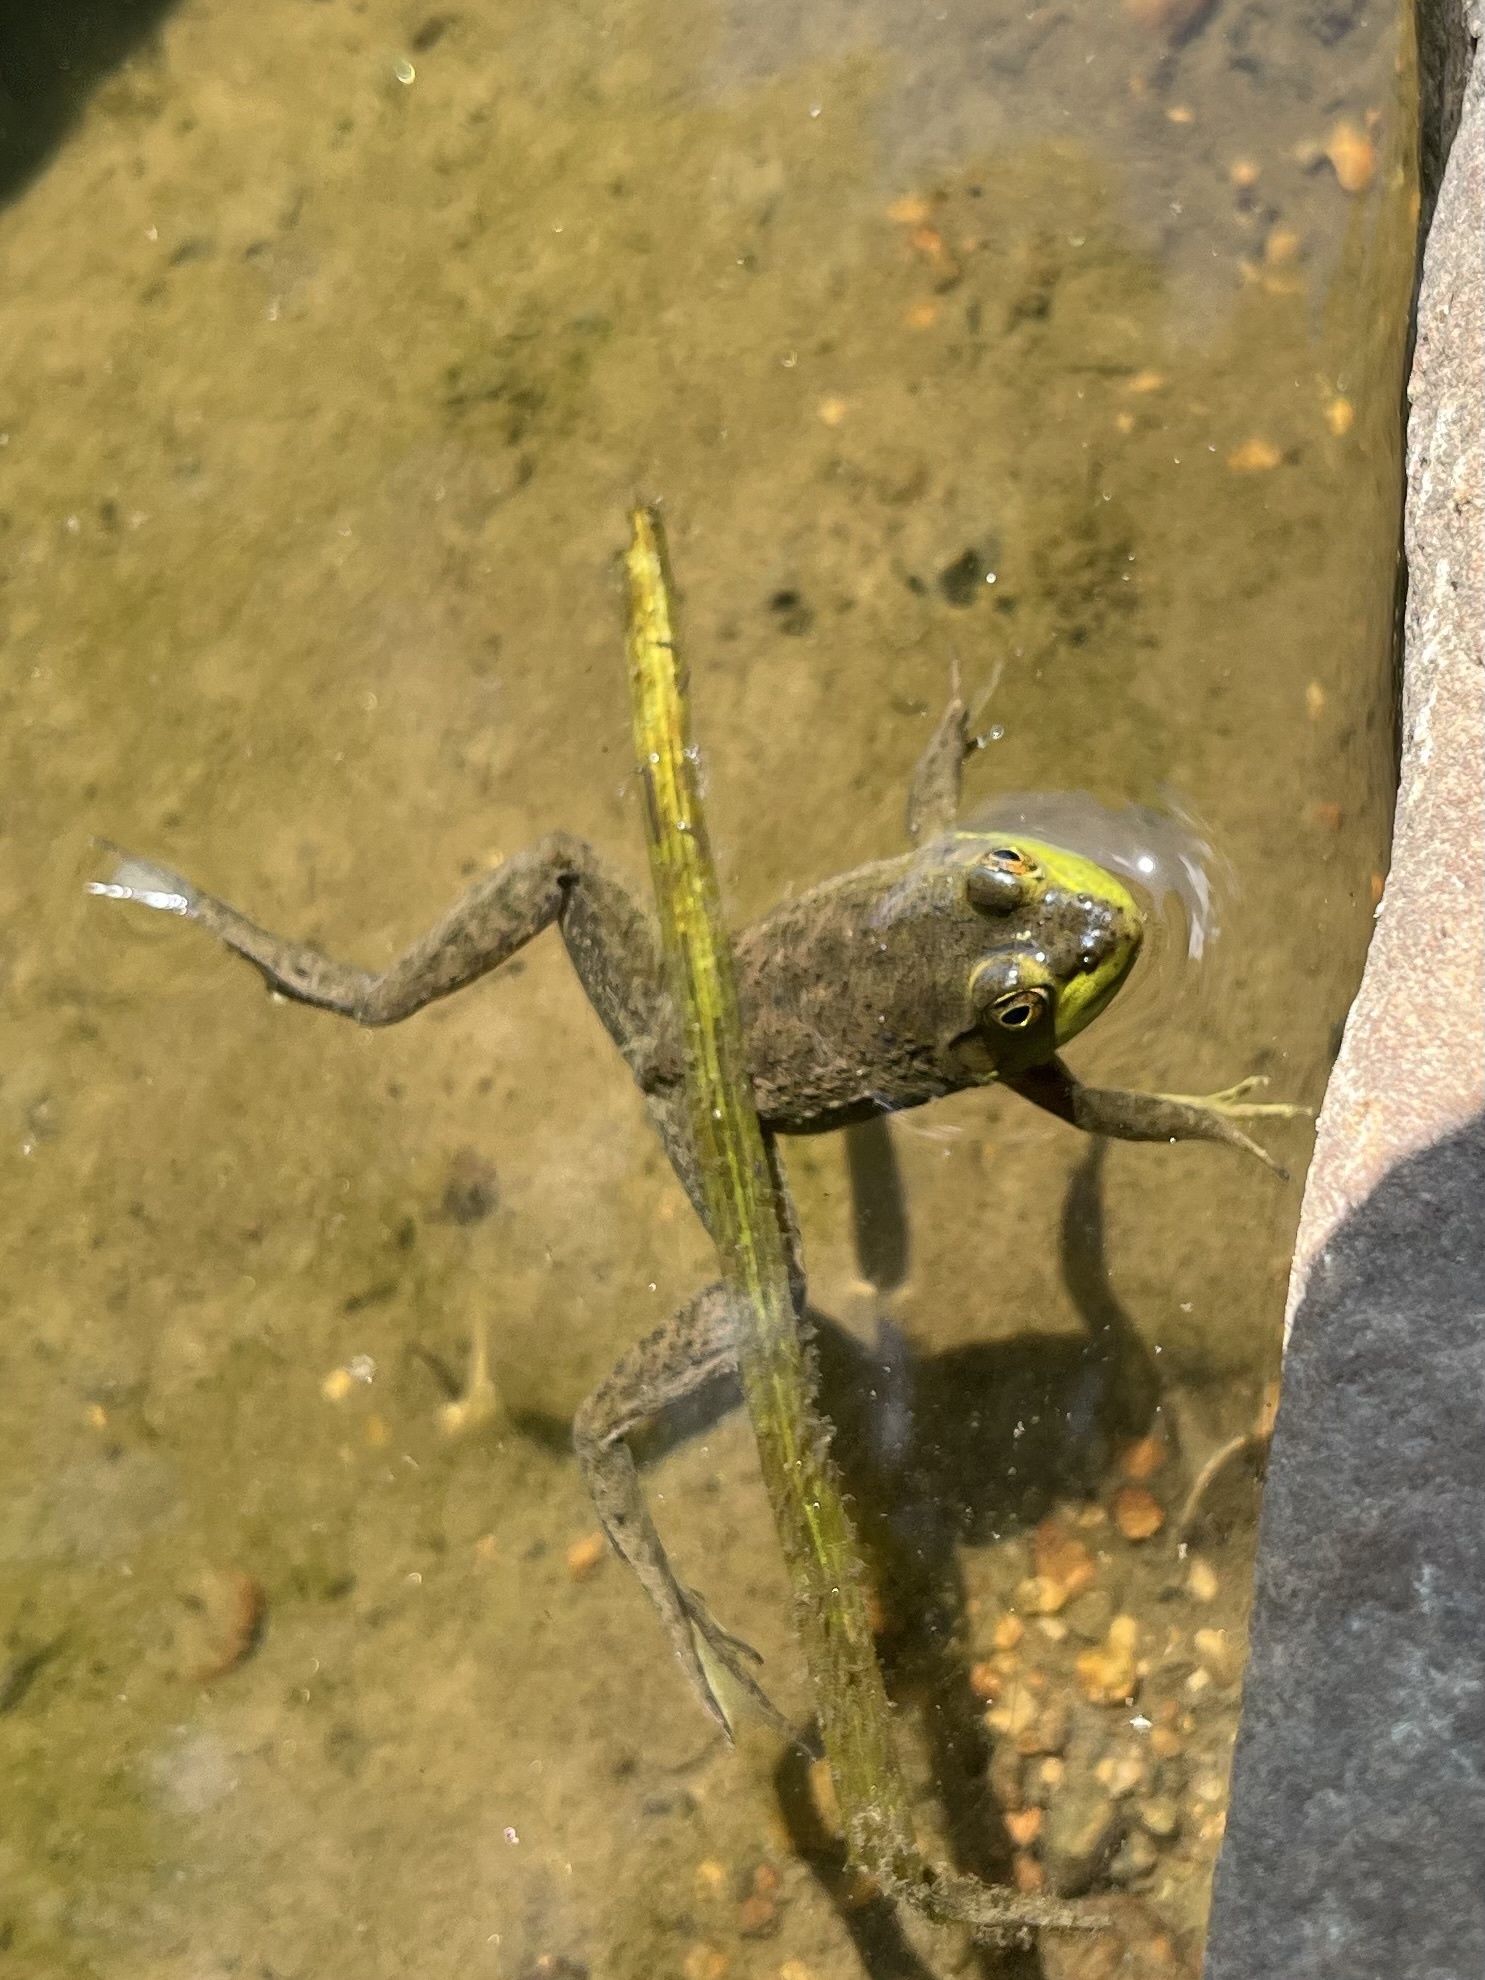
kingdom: Animalia
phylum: Chordata
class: Amphibia
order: Anura
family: Ranidae
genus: Lithobates
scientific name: Lithobates catesbeianus
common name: American bullfrog
